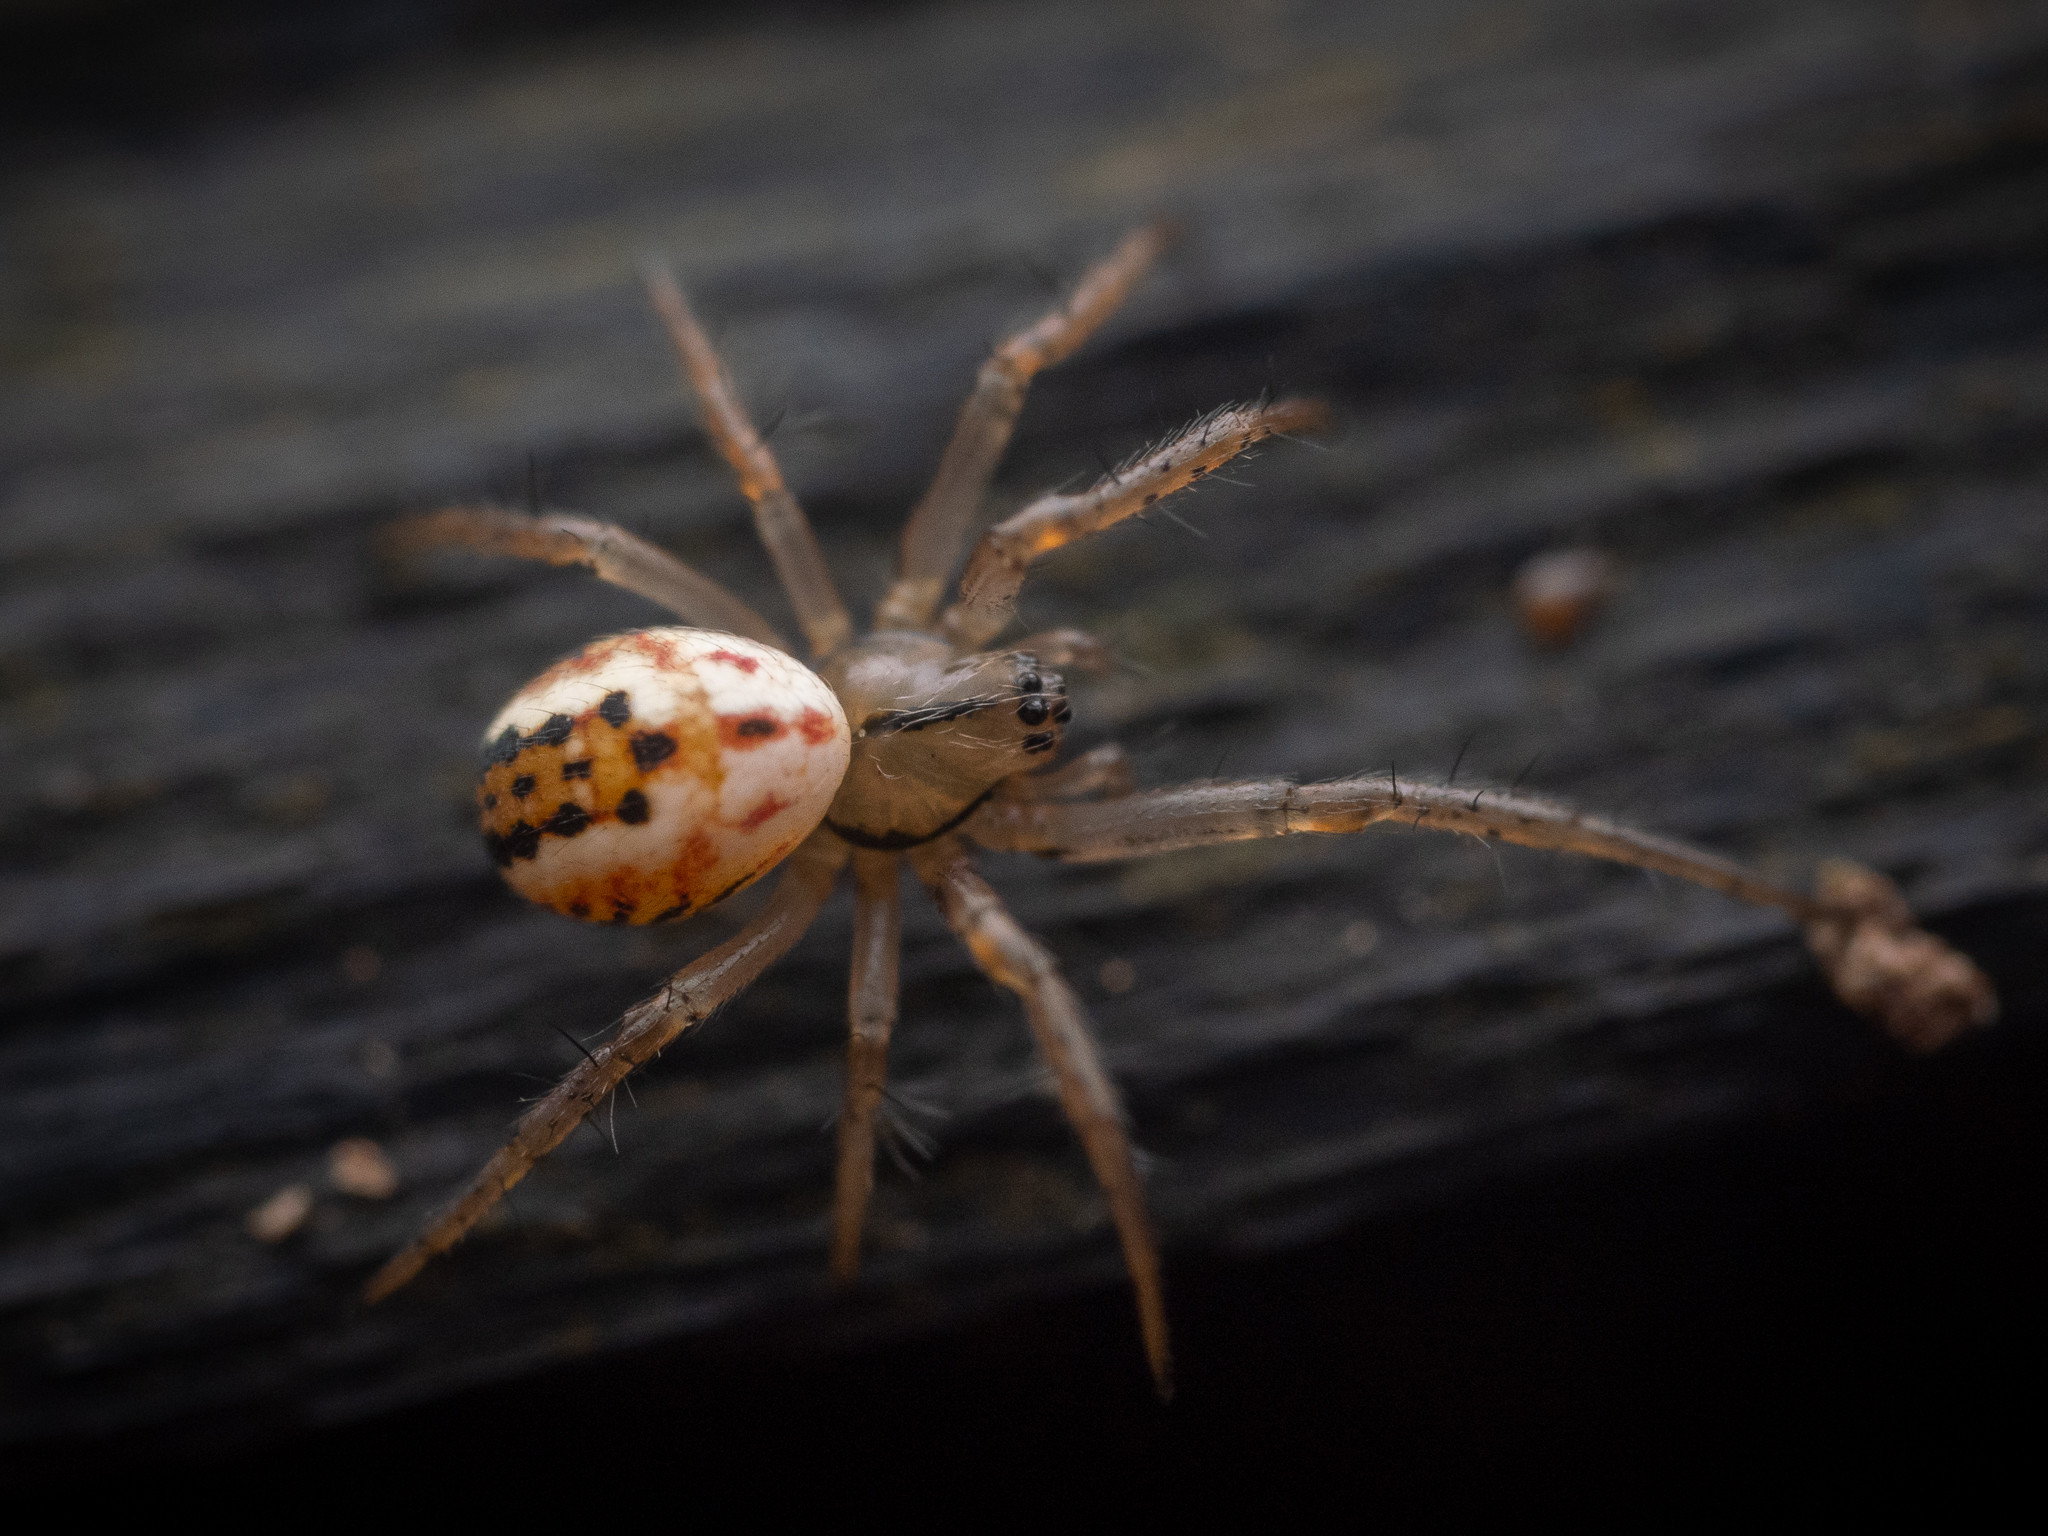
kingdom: Animalia
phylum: Arthropoda
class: Arachnida
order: Araneae
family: Araneidae
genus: Mangora
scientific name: Mangora acalypha
